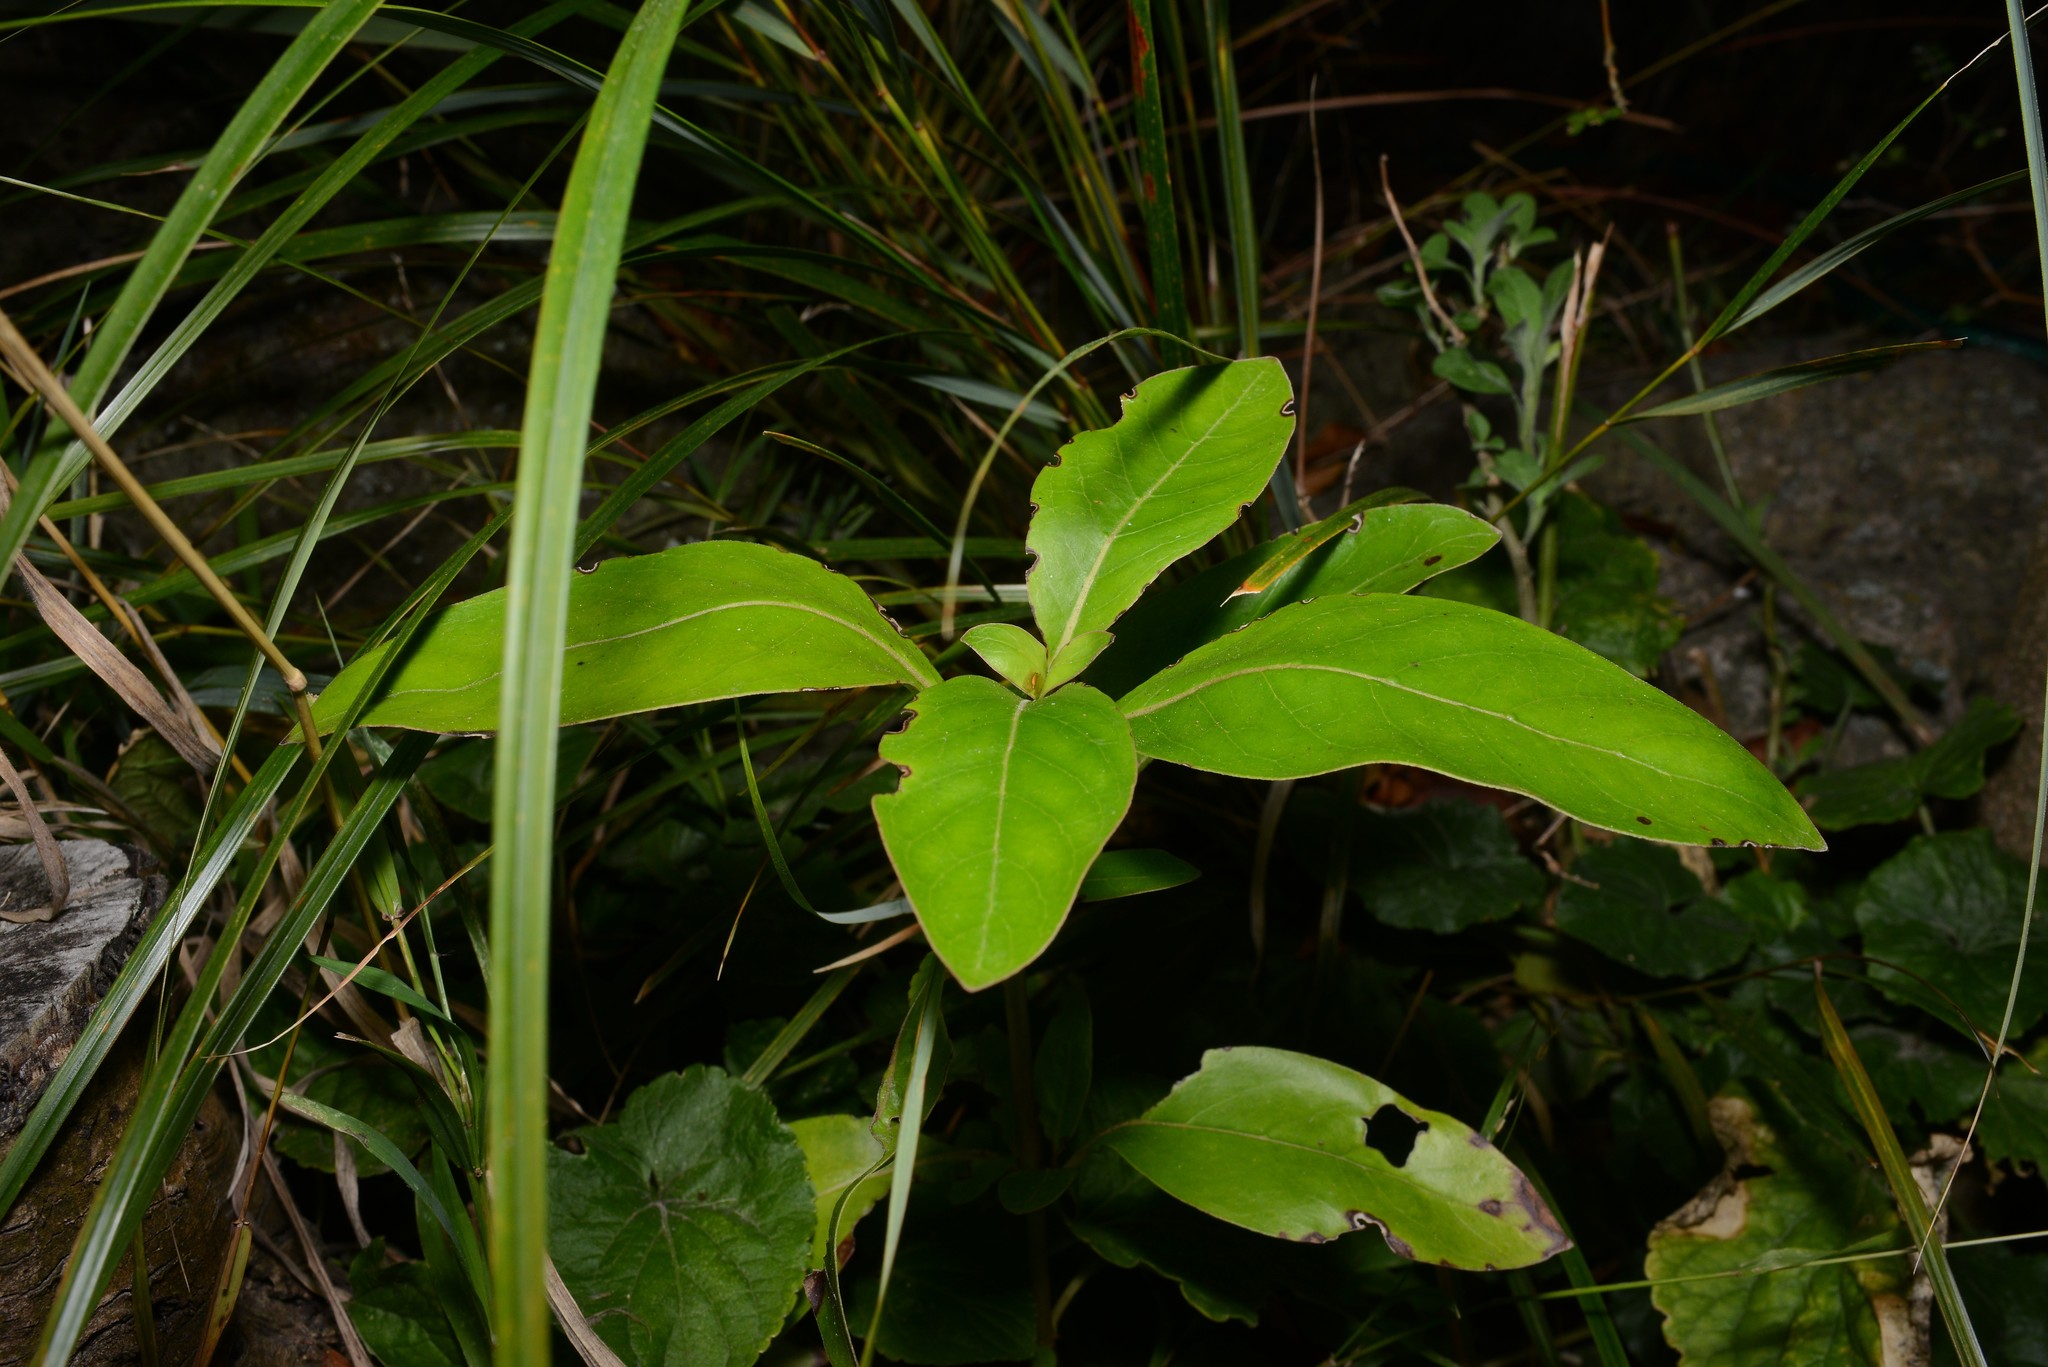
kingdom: Plantae
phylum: Tracheophyta
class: Magnoliopsida
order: Gentianales
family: Rubiaceae
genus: Coprosma
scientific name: Coprosma robusta
